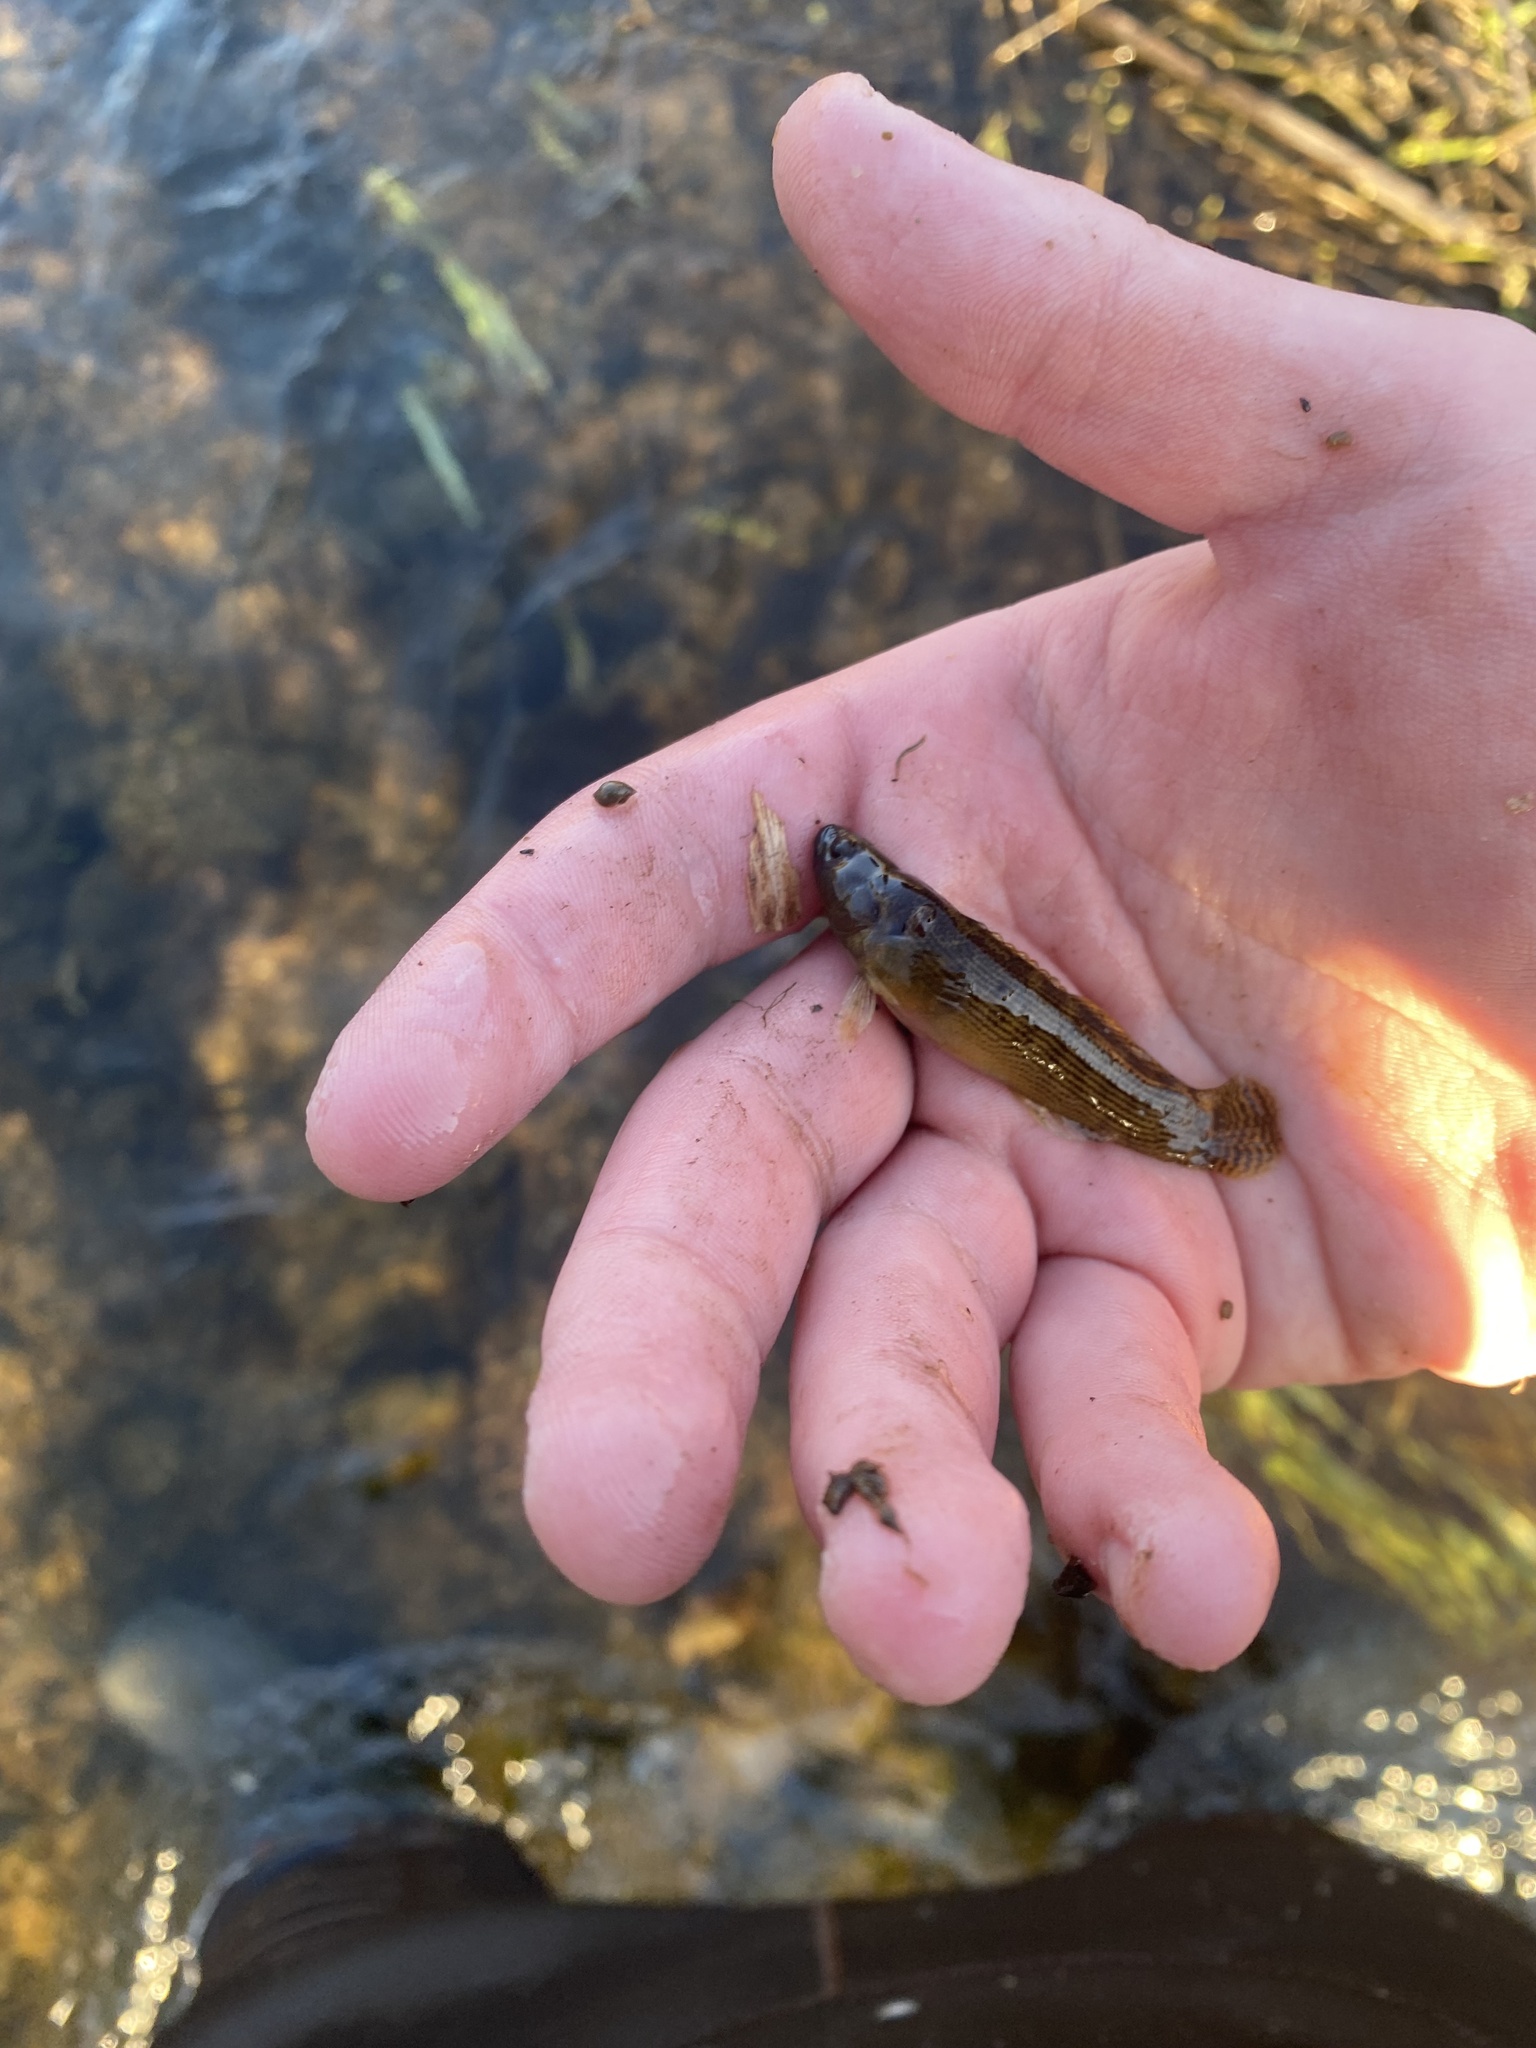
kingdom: Animalia
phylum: Chordata
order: Perciformes
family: Percidae
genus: Etheostoma
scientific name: Etheostoma flabellare
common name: Fantail darter
